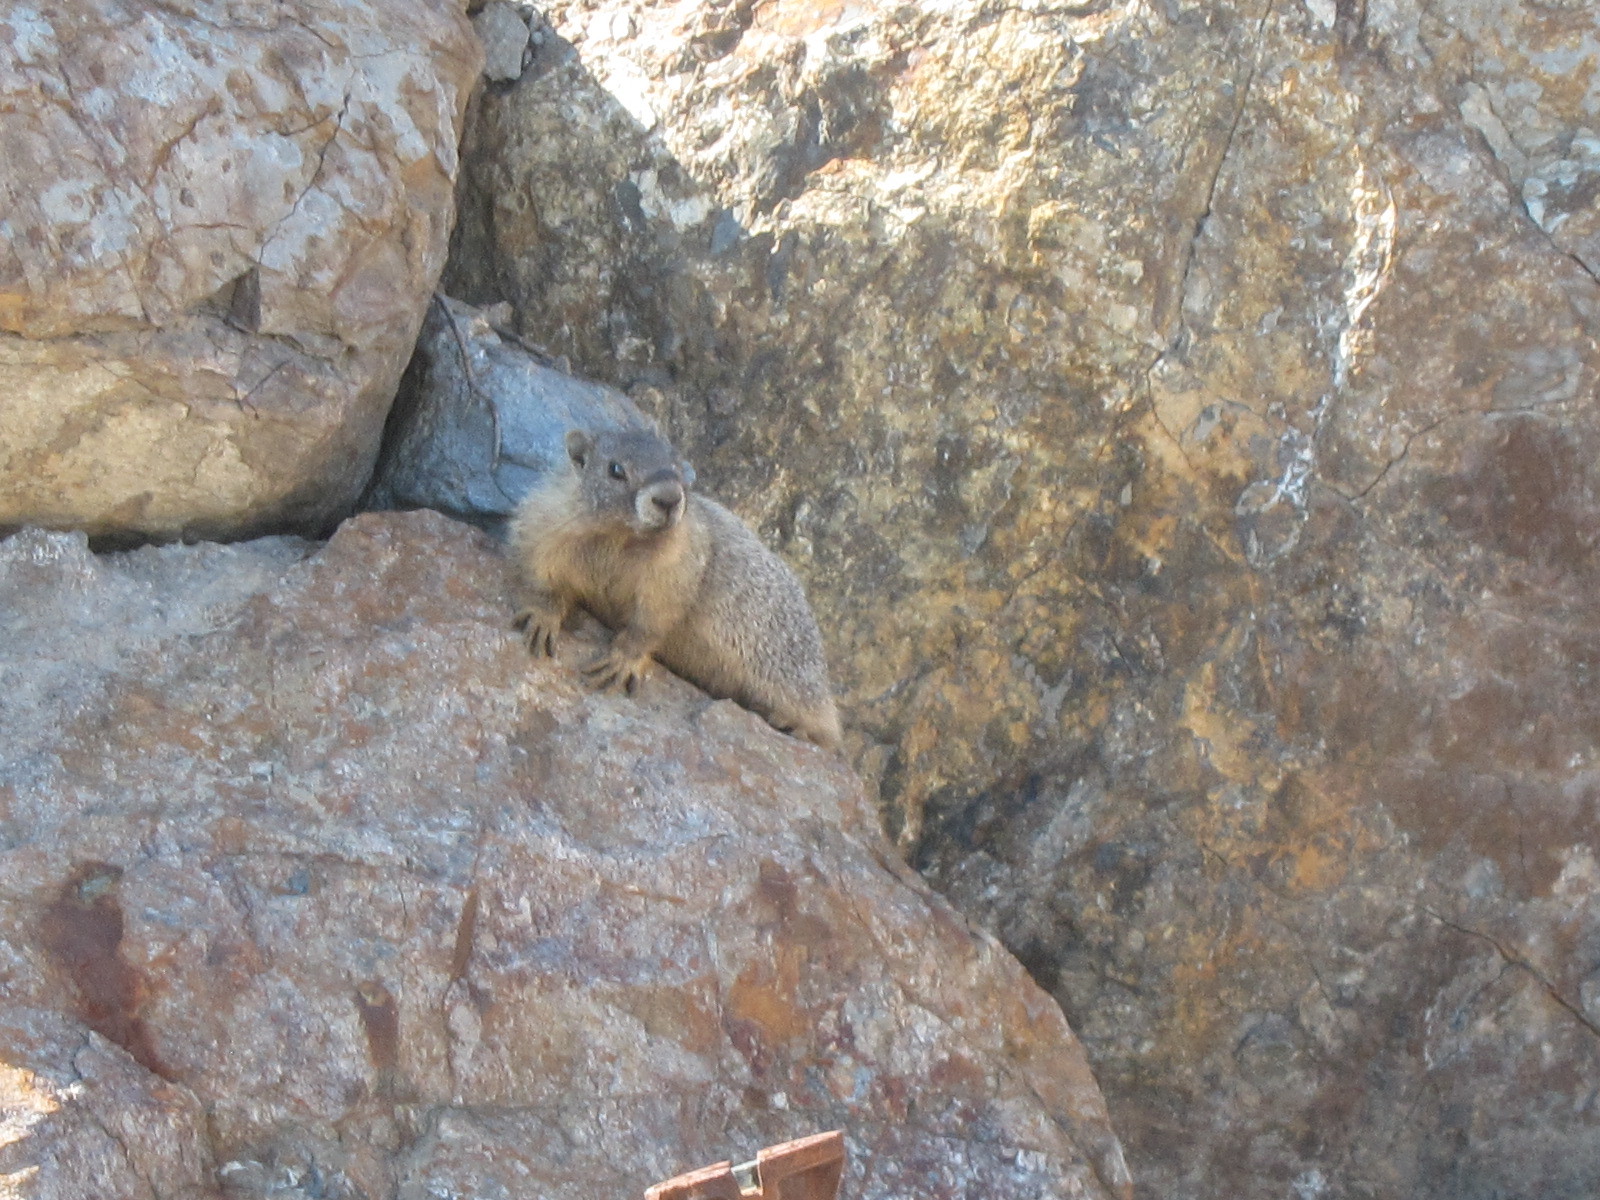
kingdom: Animalia
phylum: Chordata
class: Mammalia
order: Rodentia
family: Sciuridae
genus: Marmota
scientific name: Marmota flaviventris
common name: Yellow-bellied marmot
